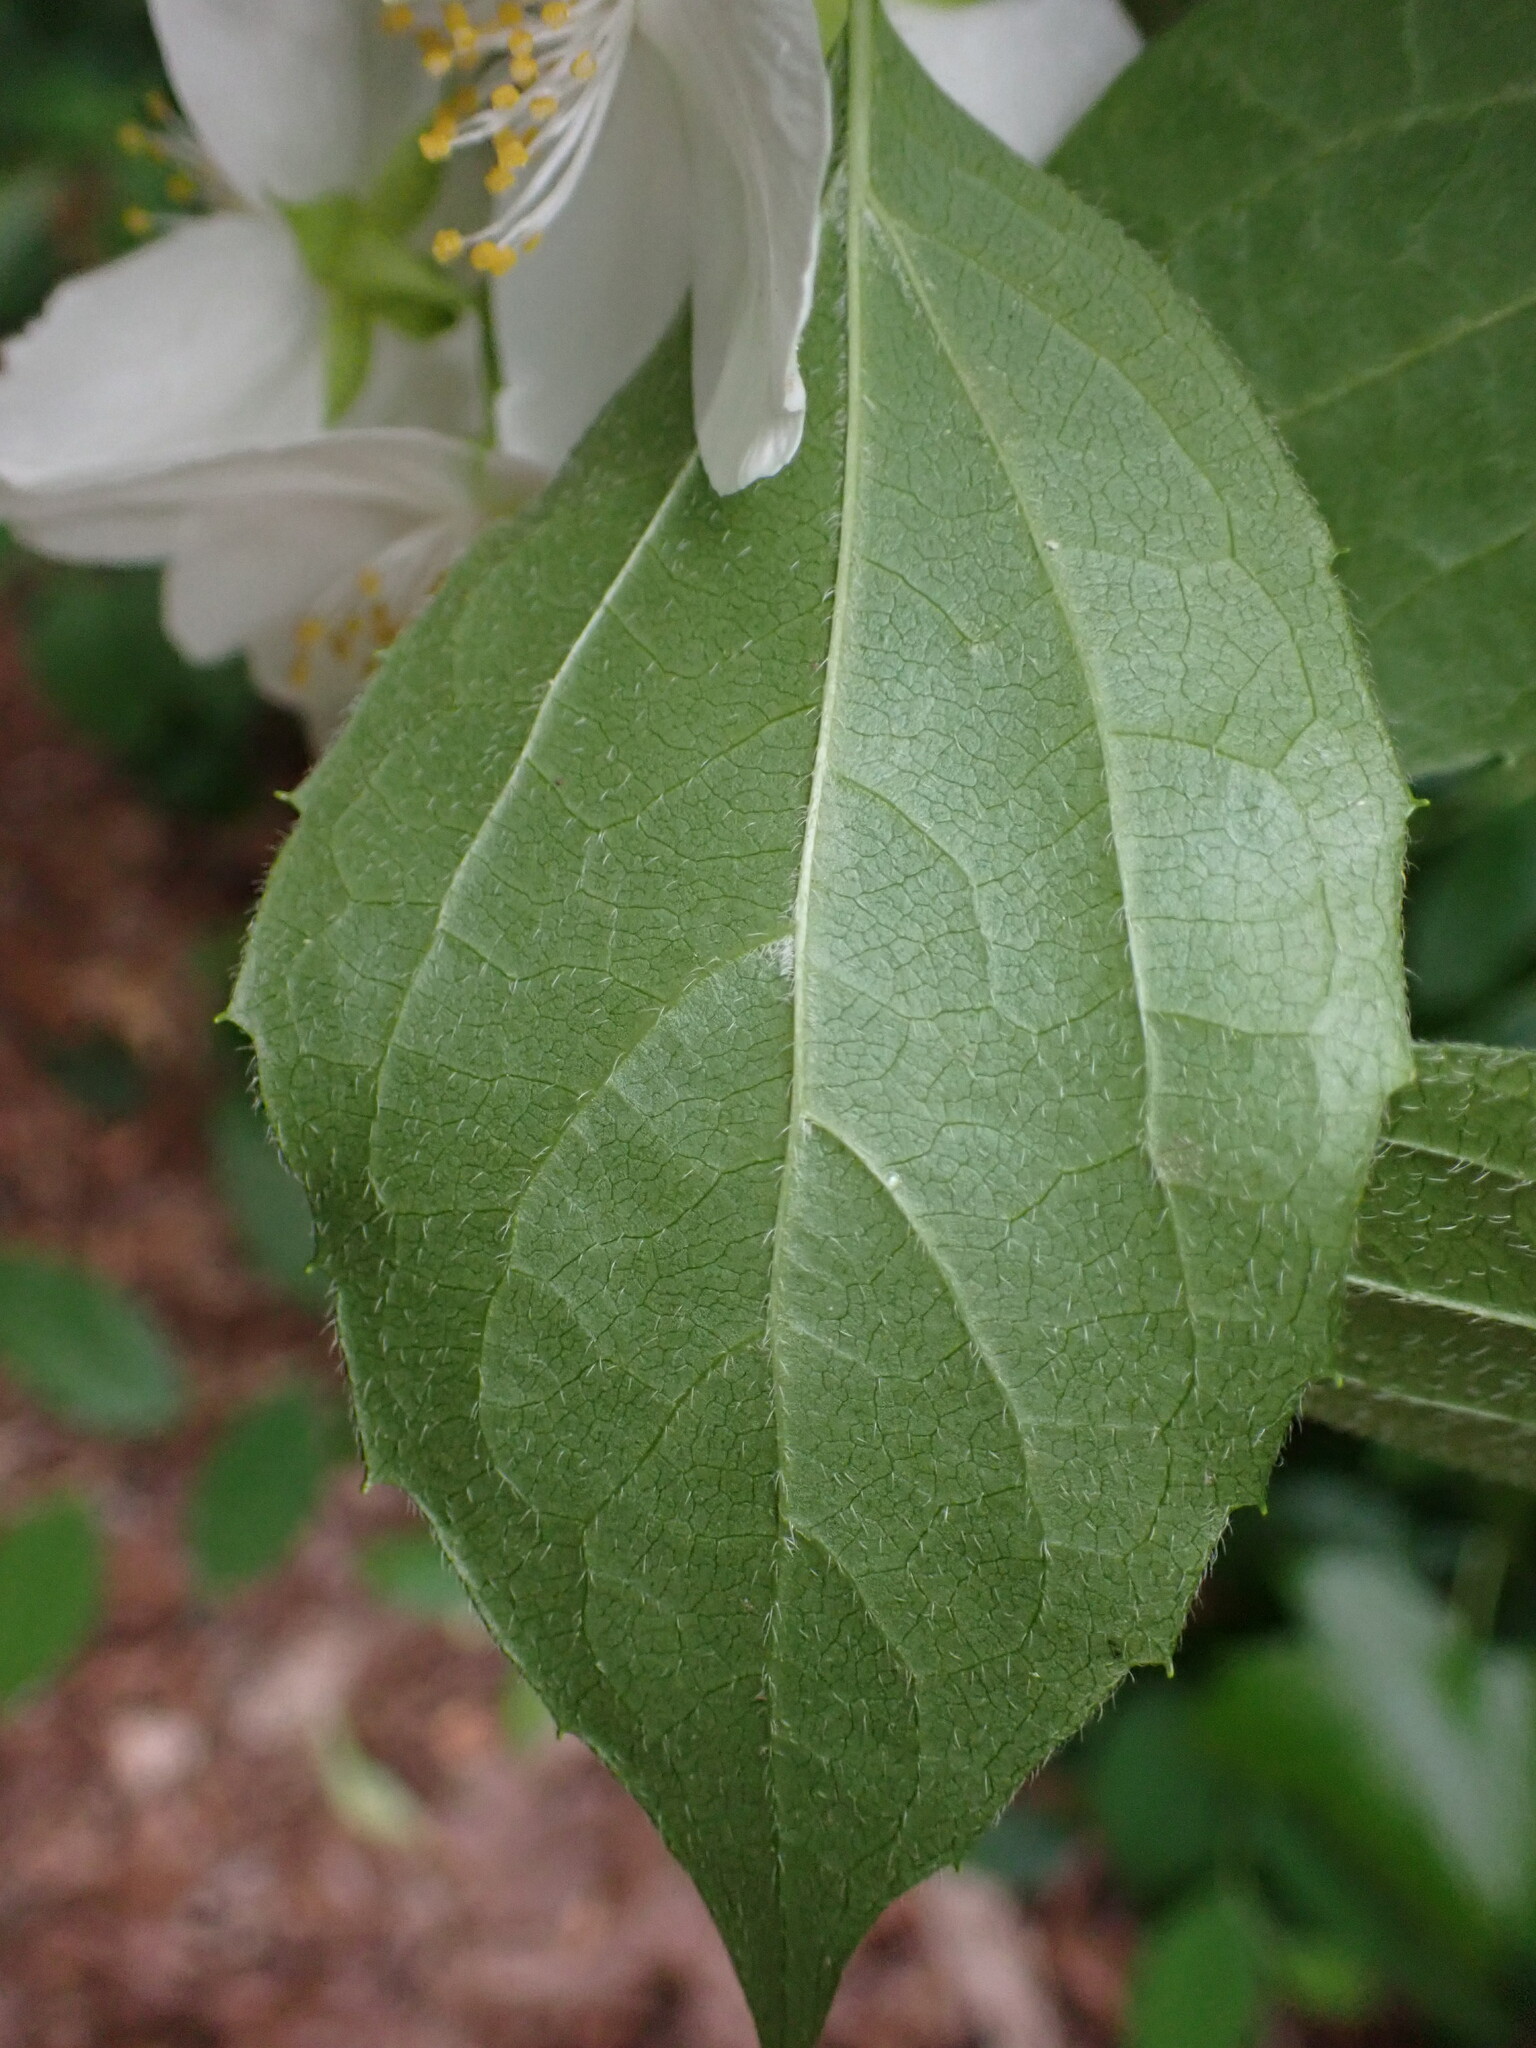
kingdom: Plantae
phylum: Tracheophyta
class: Magnoliopsida
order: Cornales
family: Hydrangeaceae
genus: Philadelphus
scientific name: Philadelphus coronarius
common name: Mock orange
